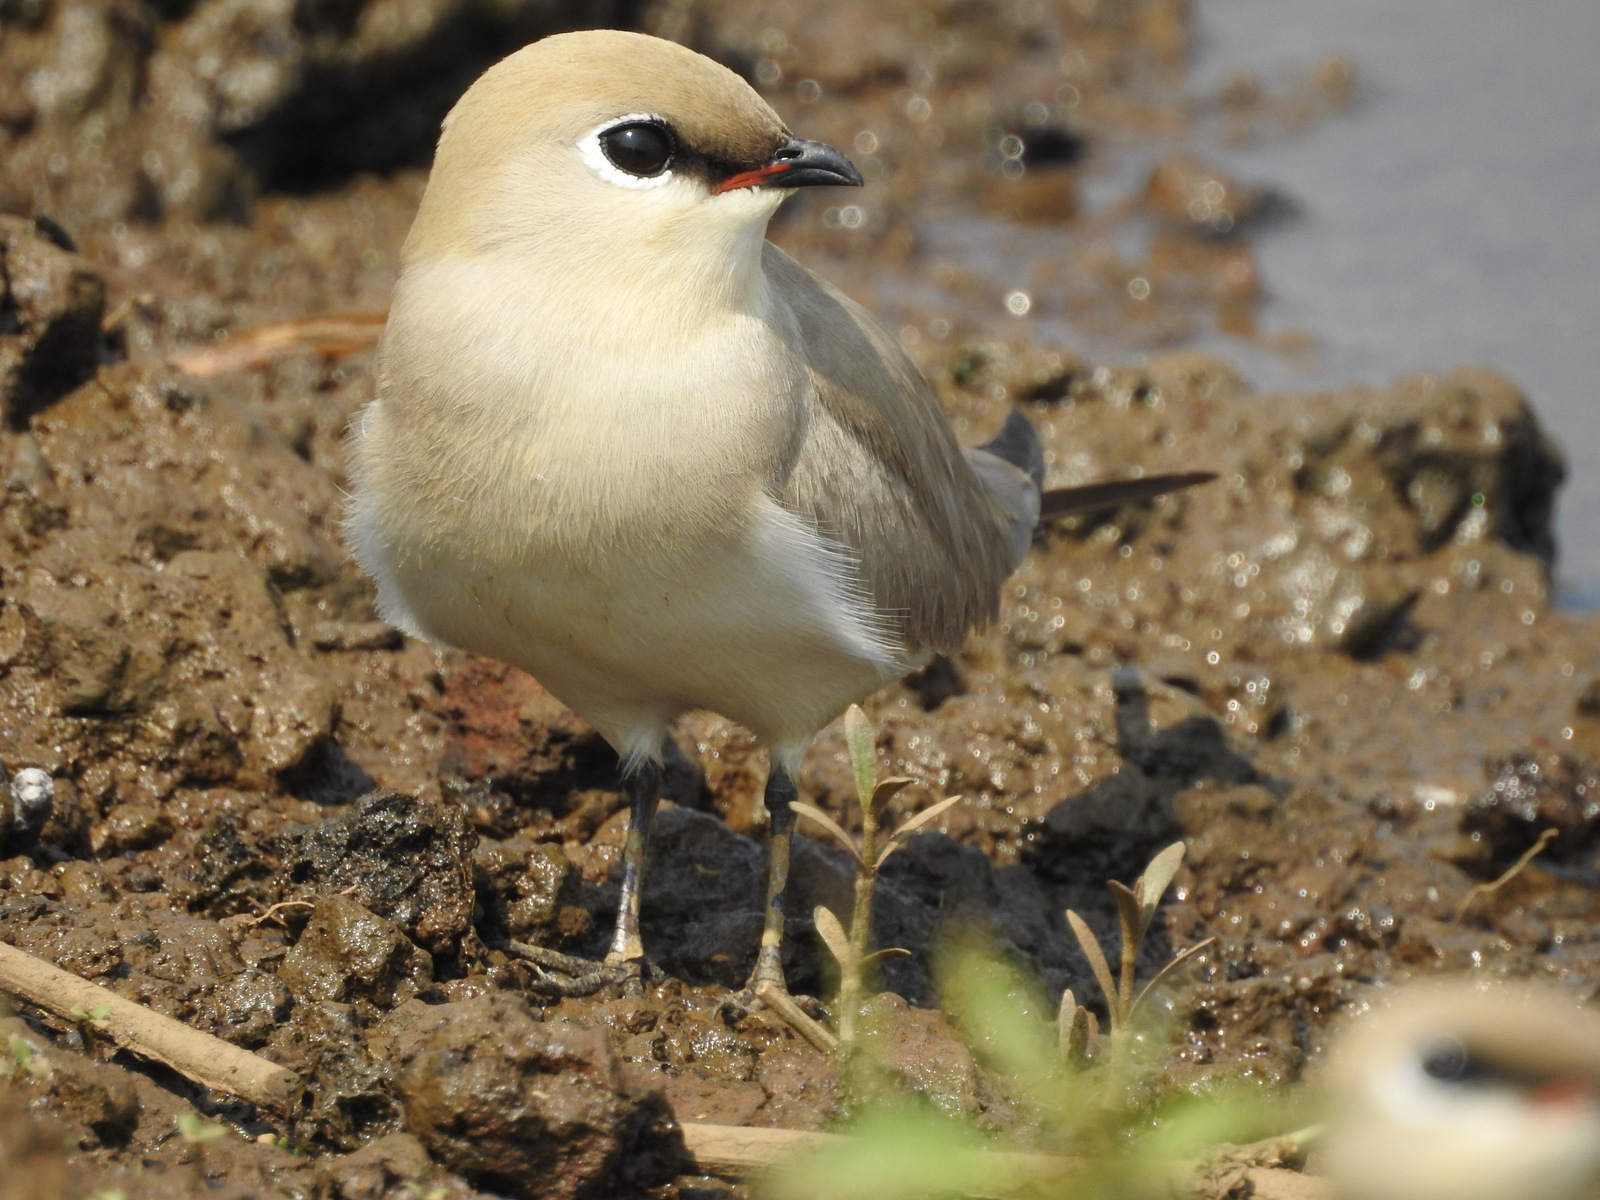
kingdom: Animalia
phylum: Chordata
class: Aves
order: Charadriiformes
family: Glareolidae
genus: Glareola
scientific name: Glareola lactea
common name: Small pratincole
